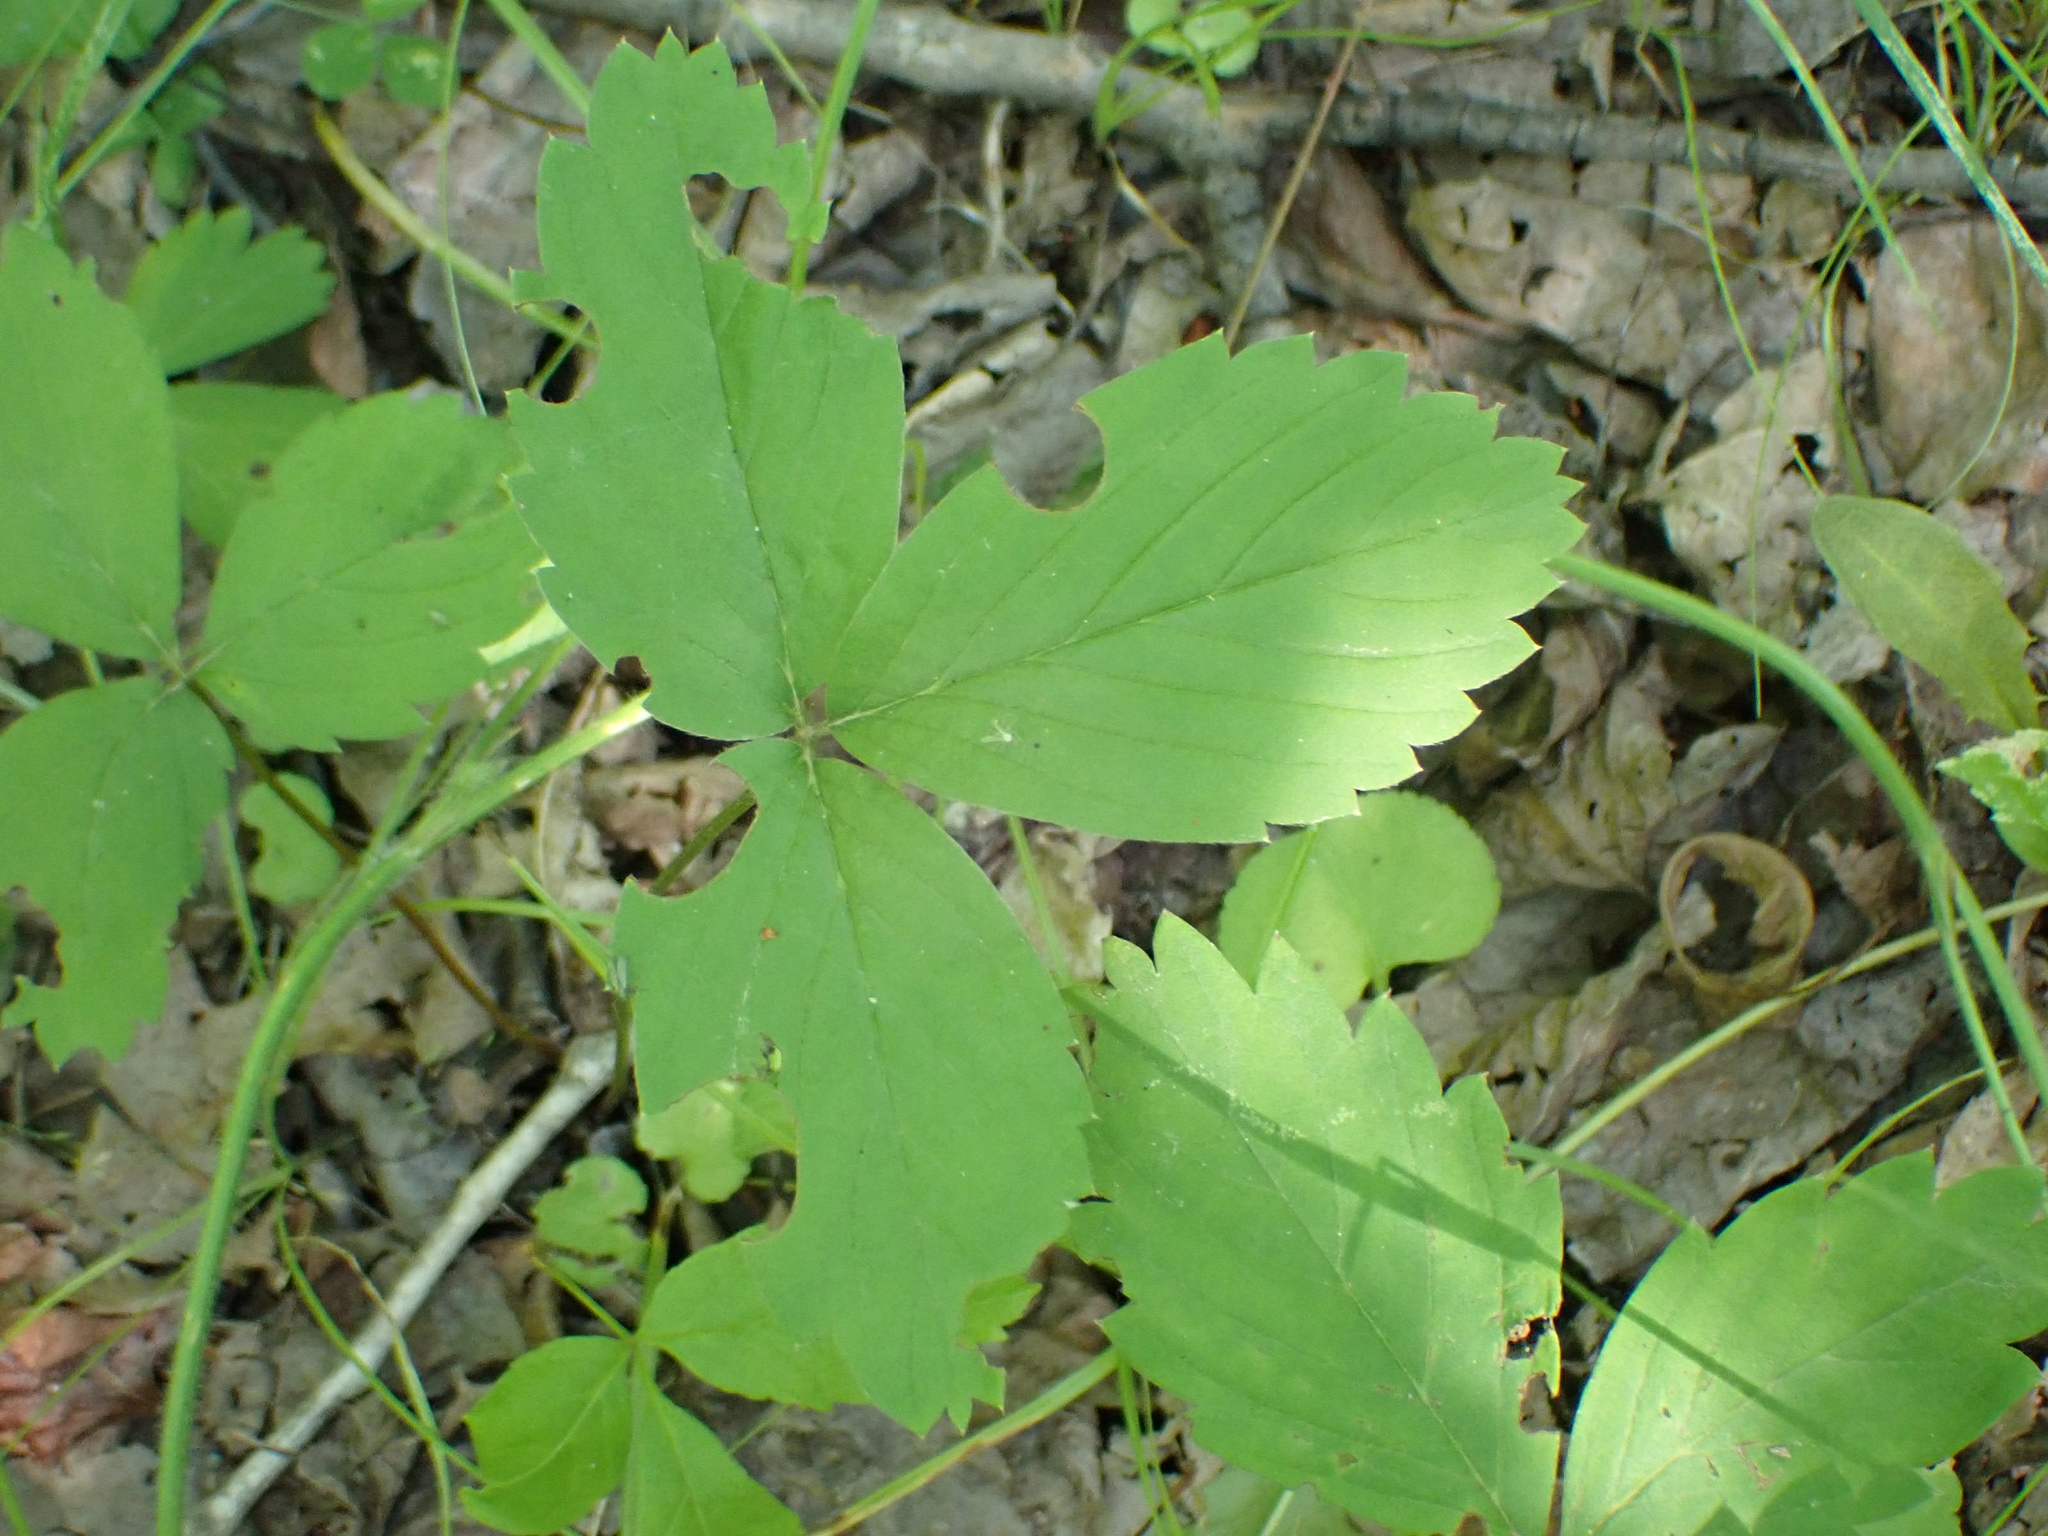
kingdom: Plantae
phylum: Tracheophyta
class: Magnoliopsida
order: Rosales
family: Rosaceae
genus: Fragaria
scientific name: Fragaria virginiana
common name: Thickleaved wild strawberry
